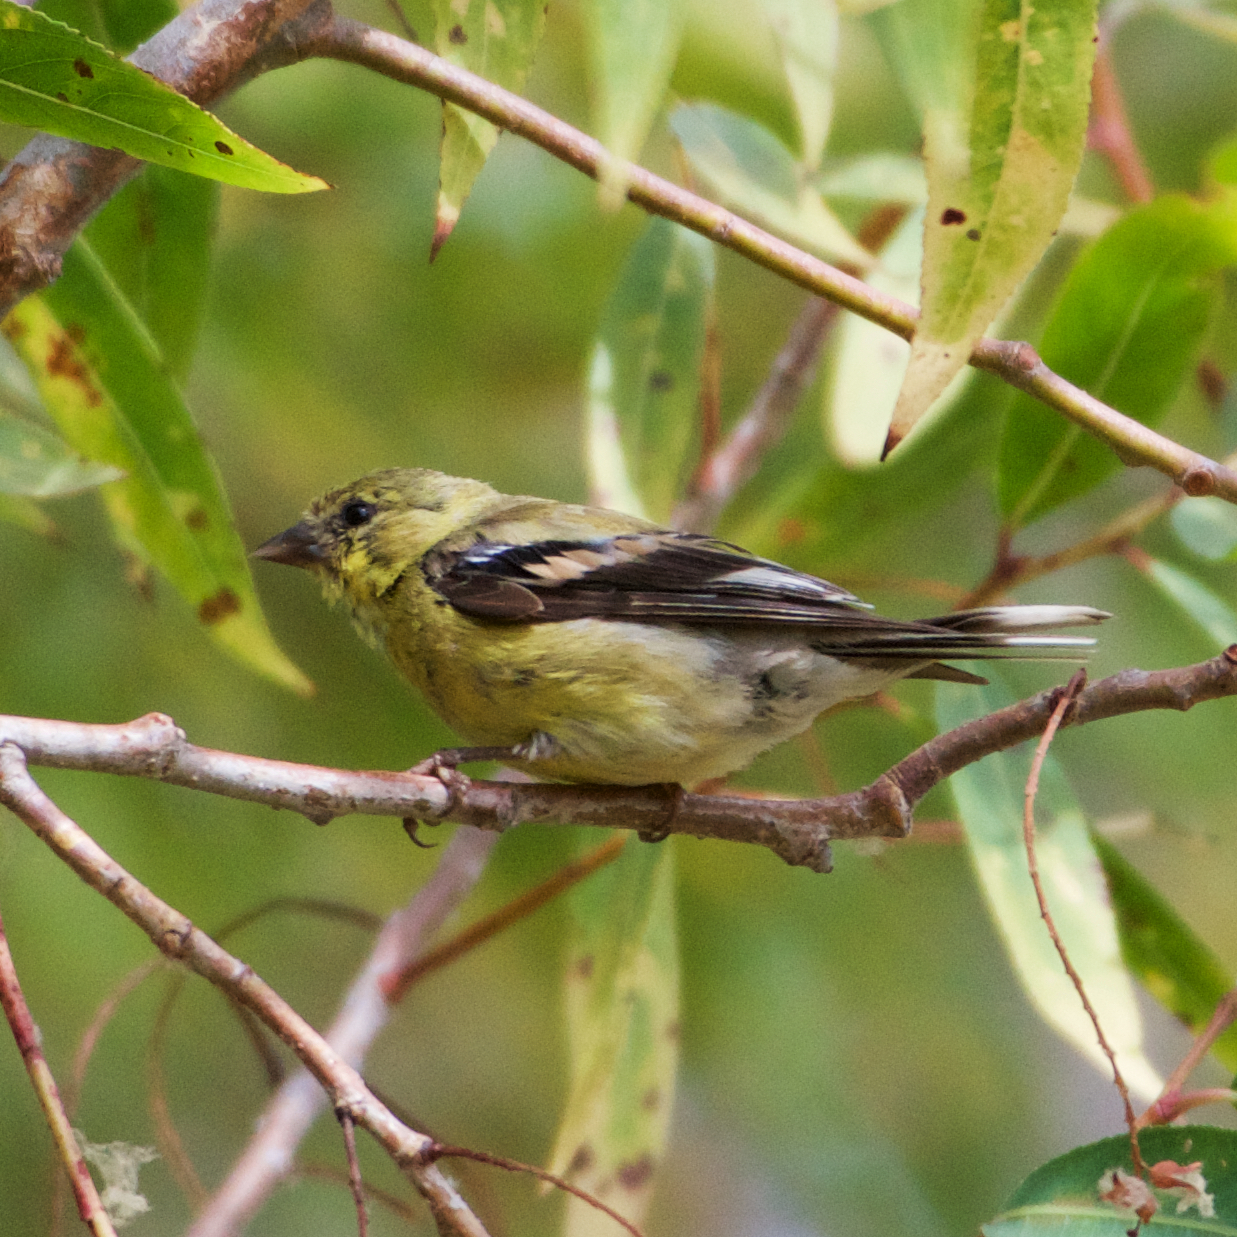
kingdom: Animalia
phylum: Chordata
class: Aves
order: Passeriformes
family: Fringillidae
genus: Spinus
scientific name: Spinus tristis
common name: American goldfinch
